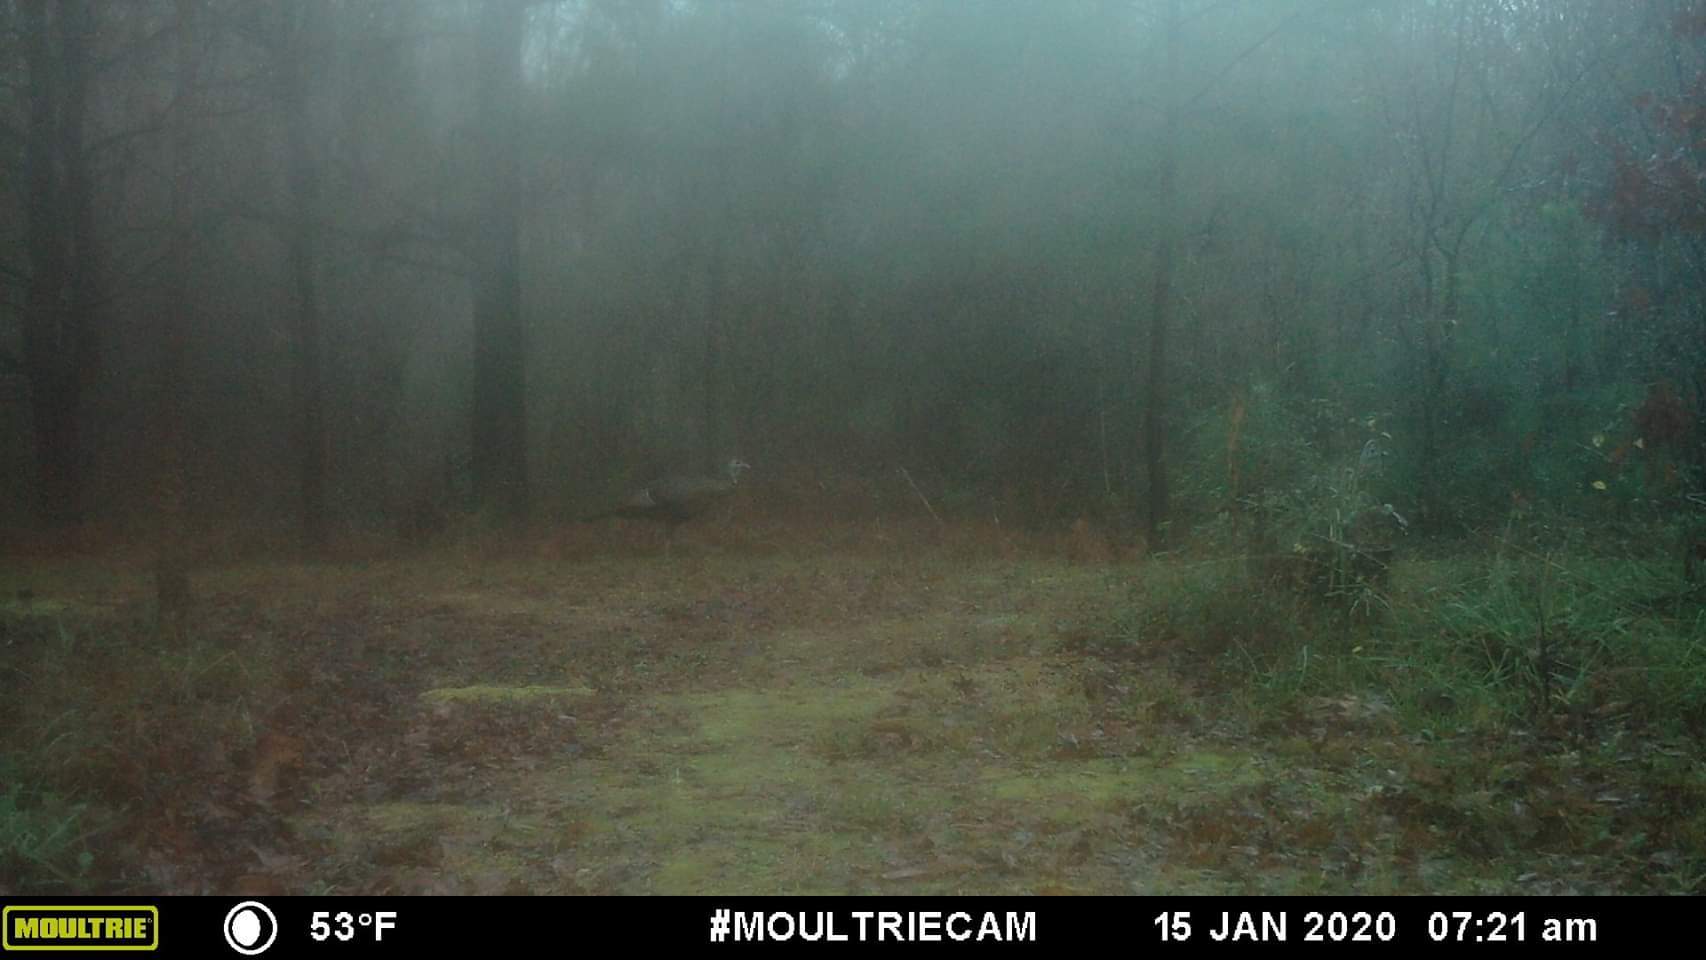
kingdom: Animalia
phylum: Chordata
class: Aves
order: Galliformes
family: Phasianidae
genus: Meleagris
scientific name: Meleagris gallopavo
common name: Wild turkey
